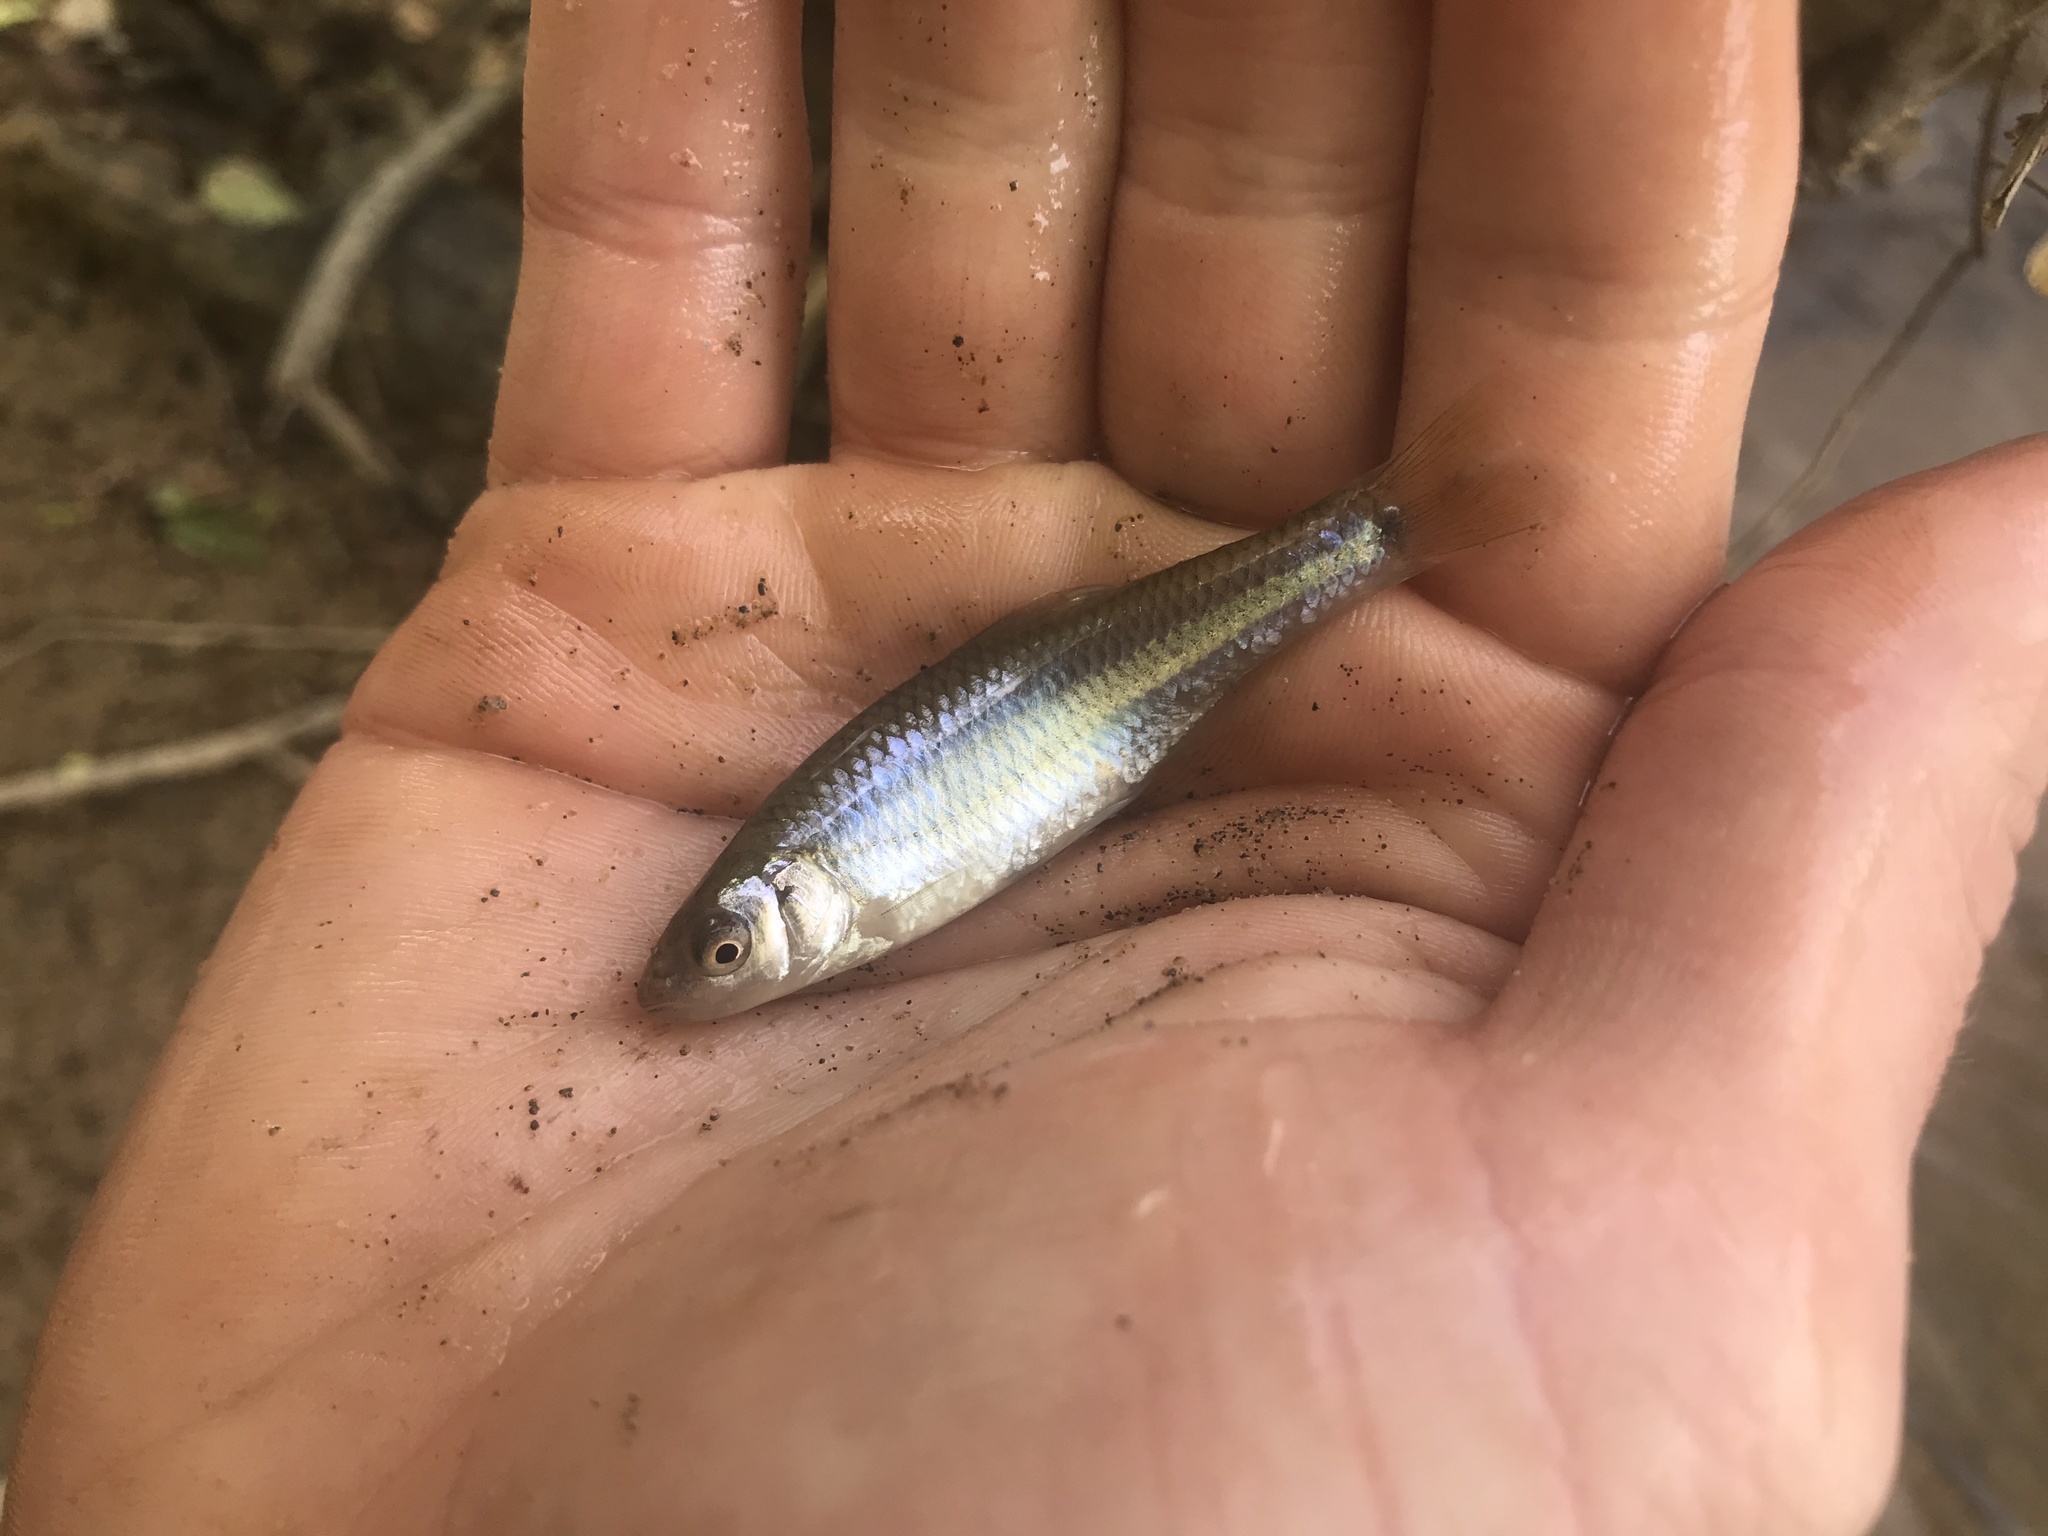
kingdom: Animalia
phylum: Chordata
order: Cypriniformes
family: Cyprinidae
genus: Cyprinella
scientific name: Cyprinella analostana
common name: Satinfin shiner
